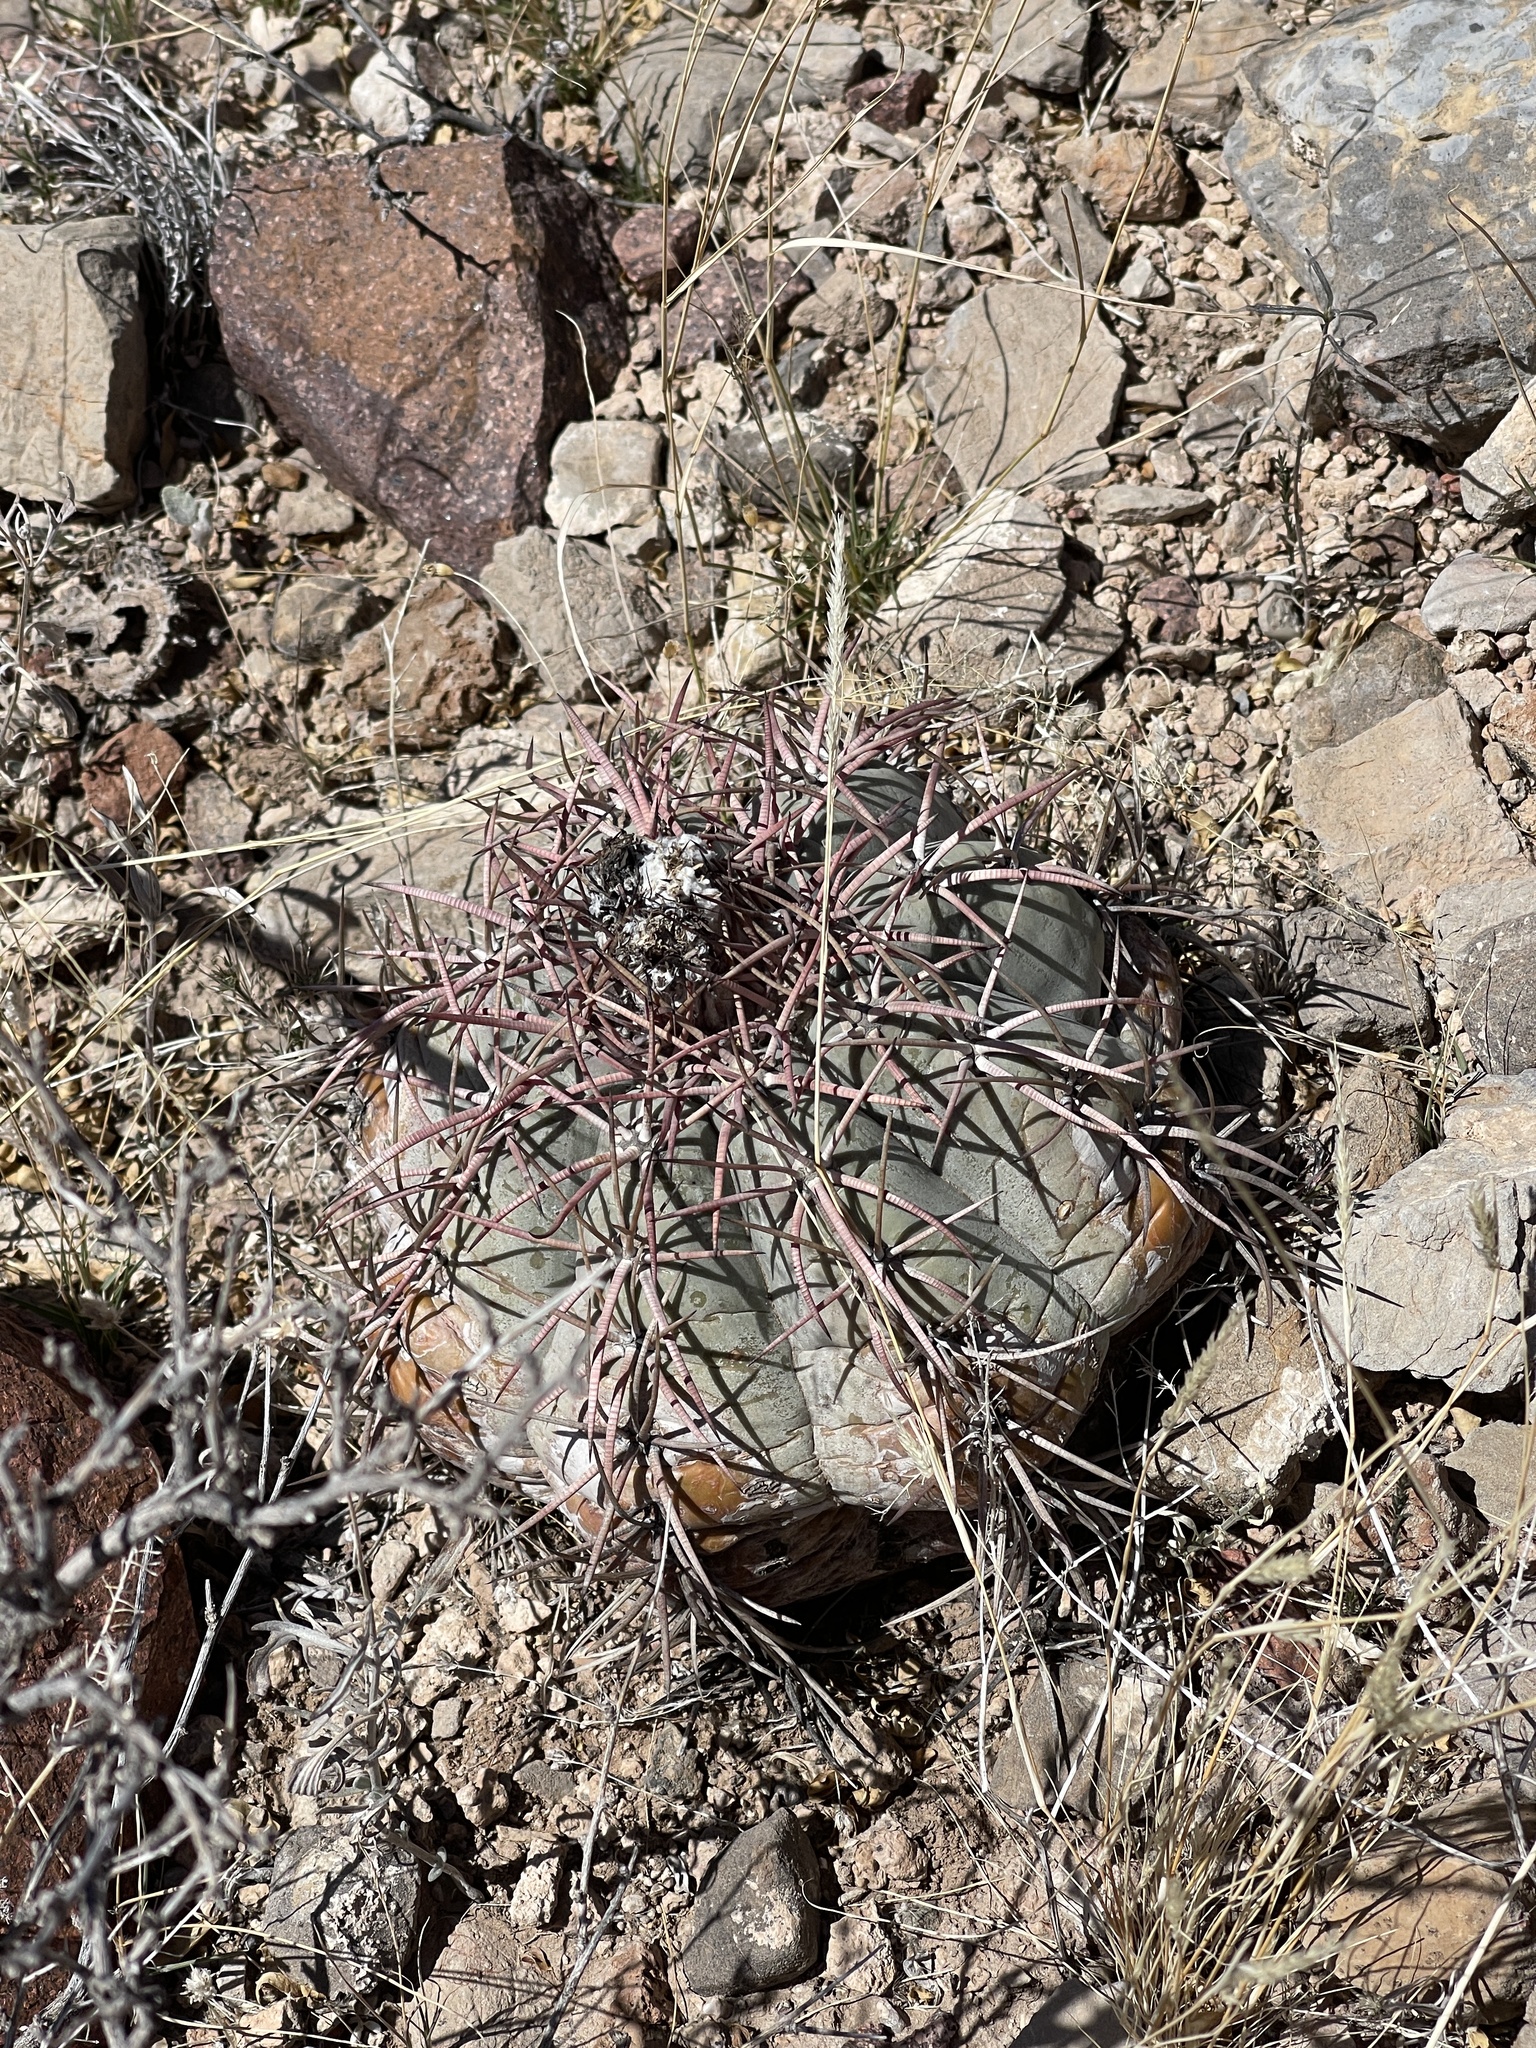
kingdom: Plantae
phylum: Tracheophyta
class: Magnoliopsida
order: Caryophyllales
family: Cactaceae
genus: Echinocactus
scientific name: Echinocactus horizonthalonius
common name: Devilshead
